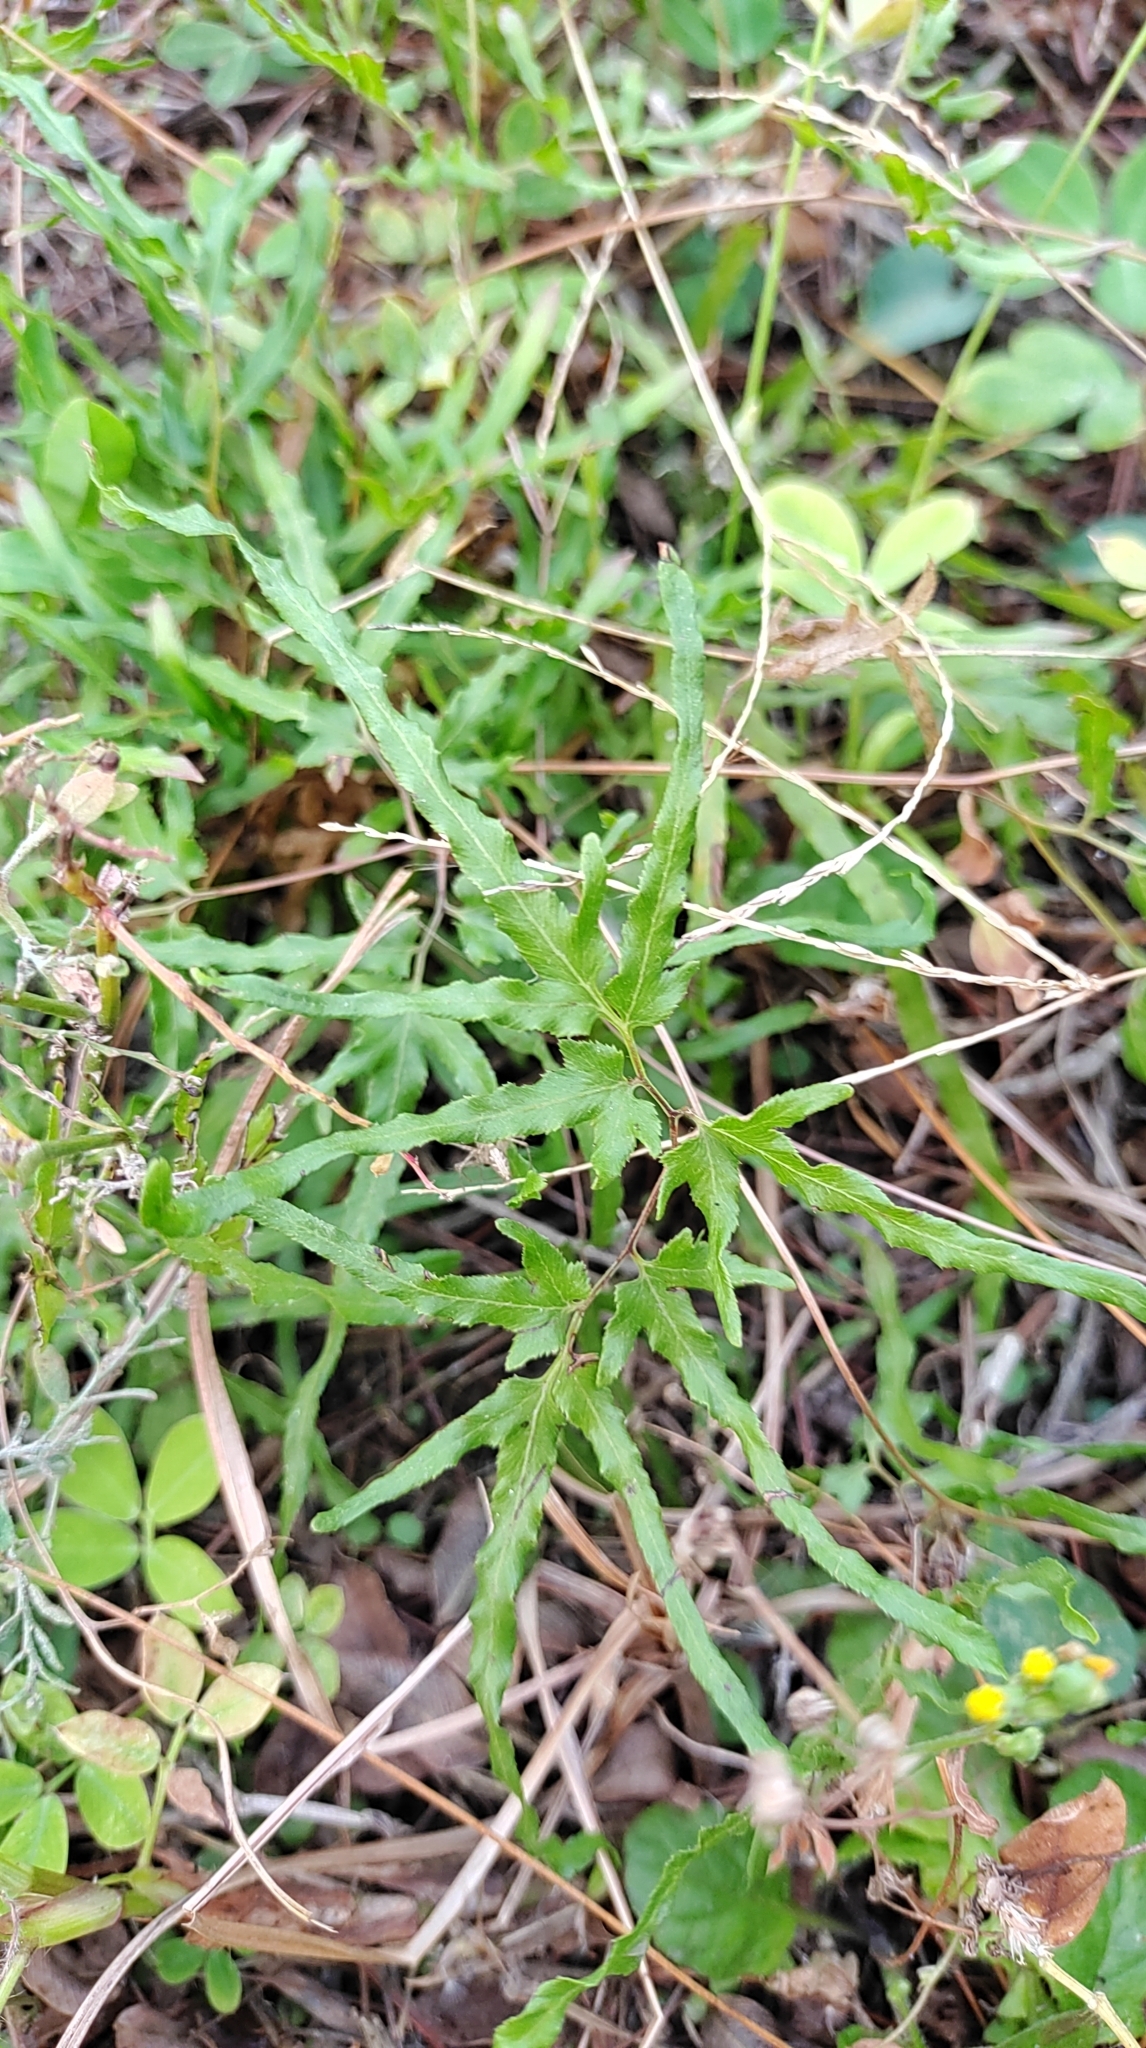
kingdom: Plantae
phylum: Tracheophyta
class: Polypodiopsida
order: Schizaeales
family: Lygodiaceae
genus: Lygodium
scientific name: Lygodium japonicum
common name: Japanese climbing fern
